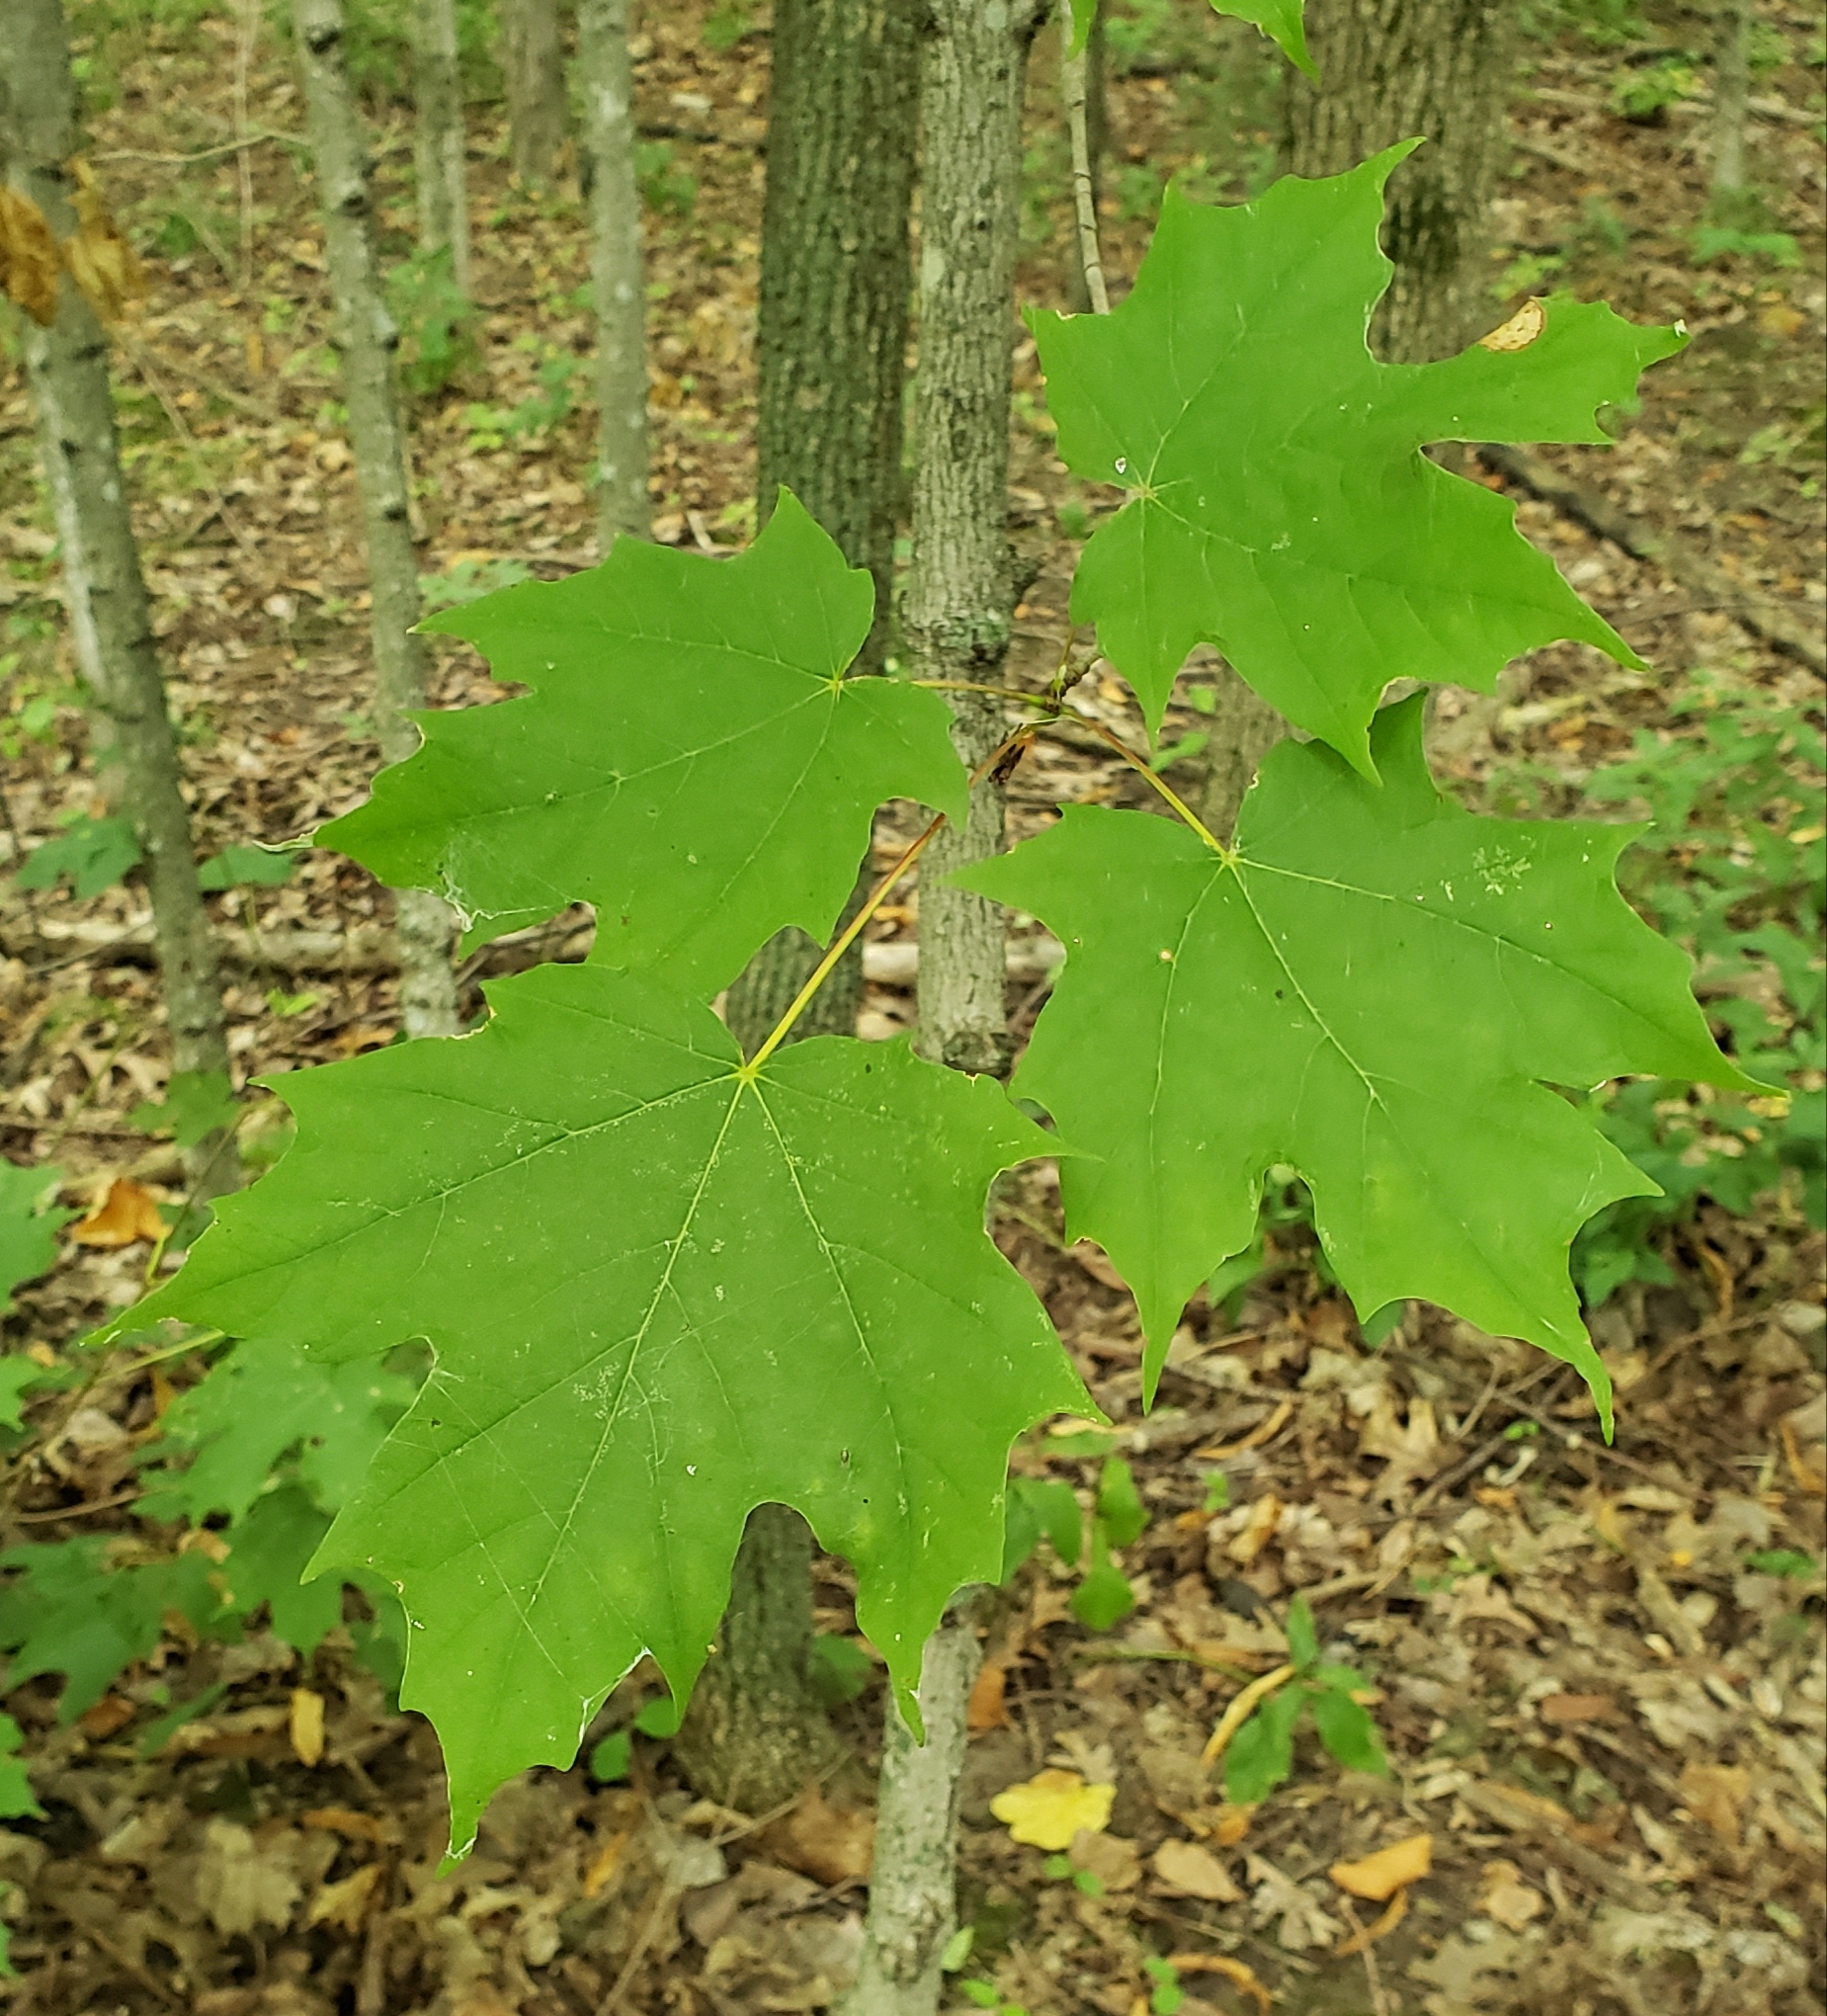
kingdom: Plantae
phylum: Tracheophyta
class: Magnoliopsida
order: Sapindales
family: Sapindaceae
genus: Acer
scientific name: Acer saccharum
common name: Sugar maple
